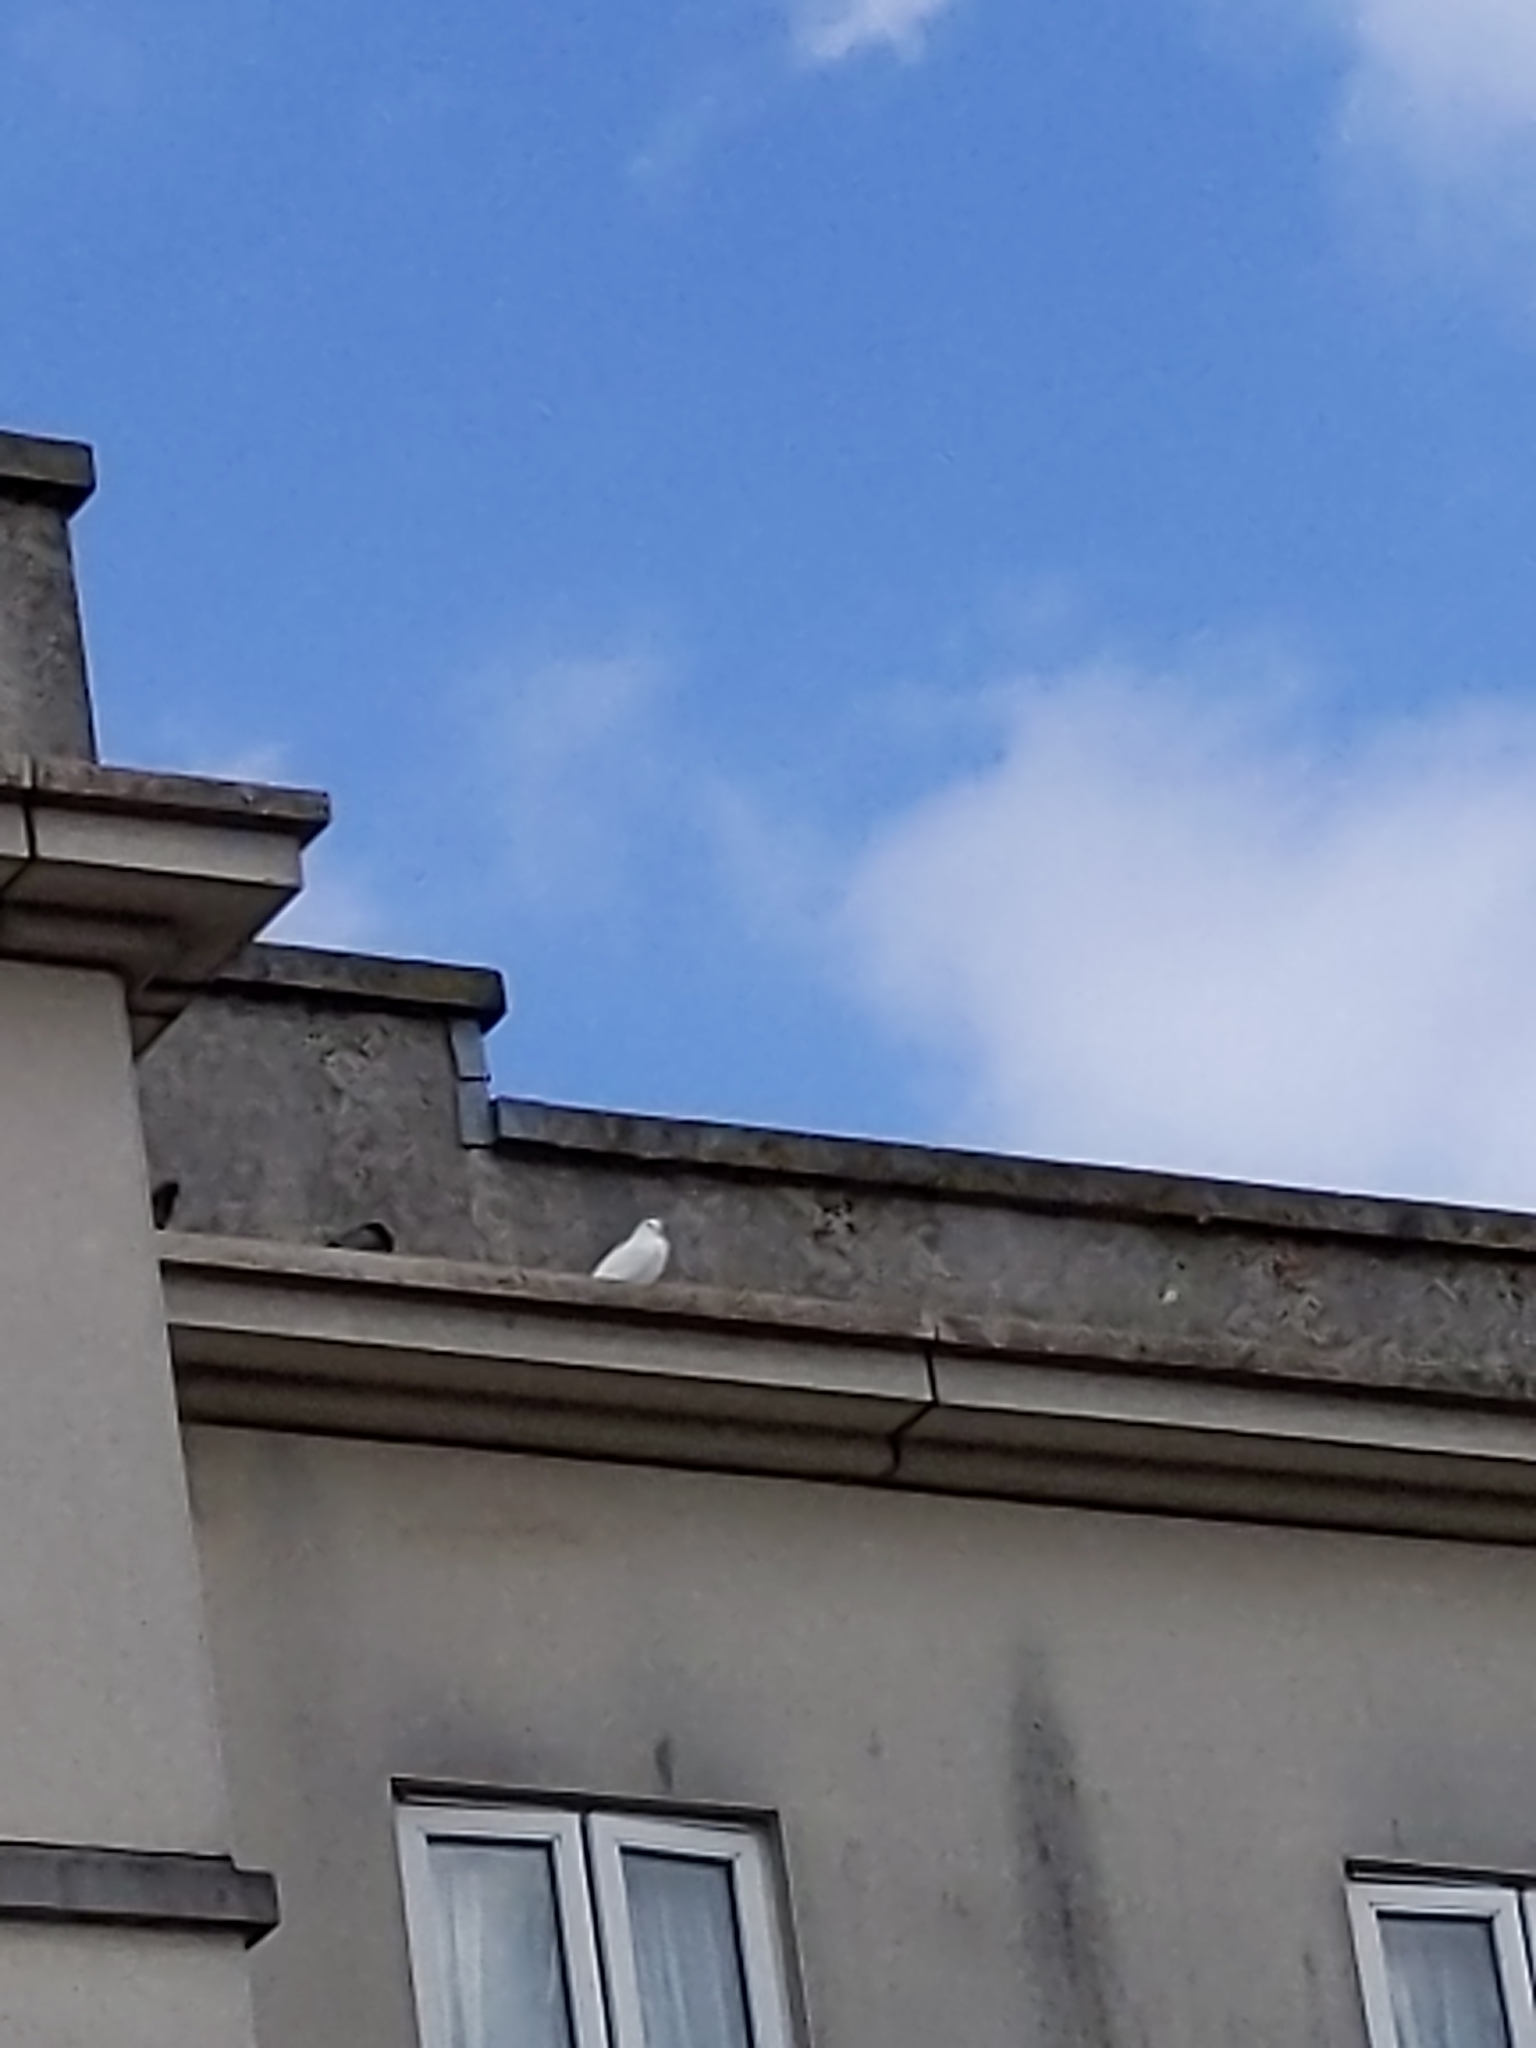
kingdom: Animalia
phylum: Chordata
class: Aves
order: Columbiformes
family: Columbidae
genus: Columba
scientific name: Columba livia
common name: Rock pigeon
